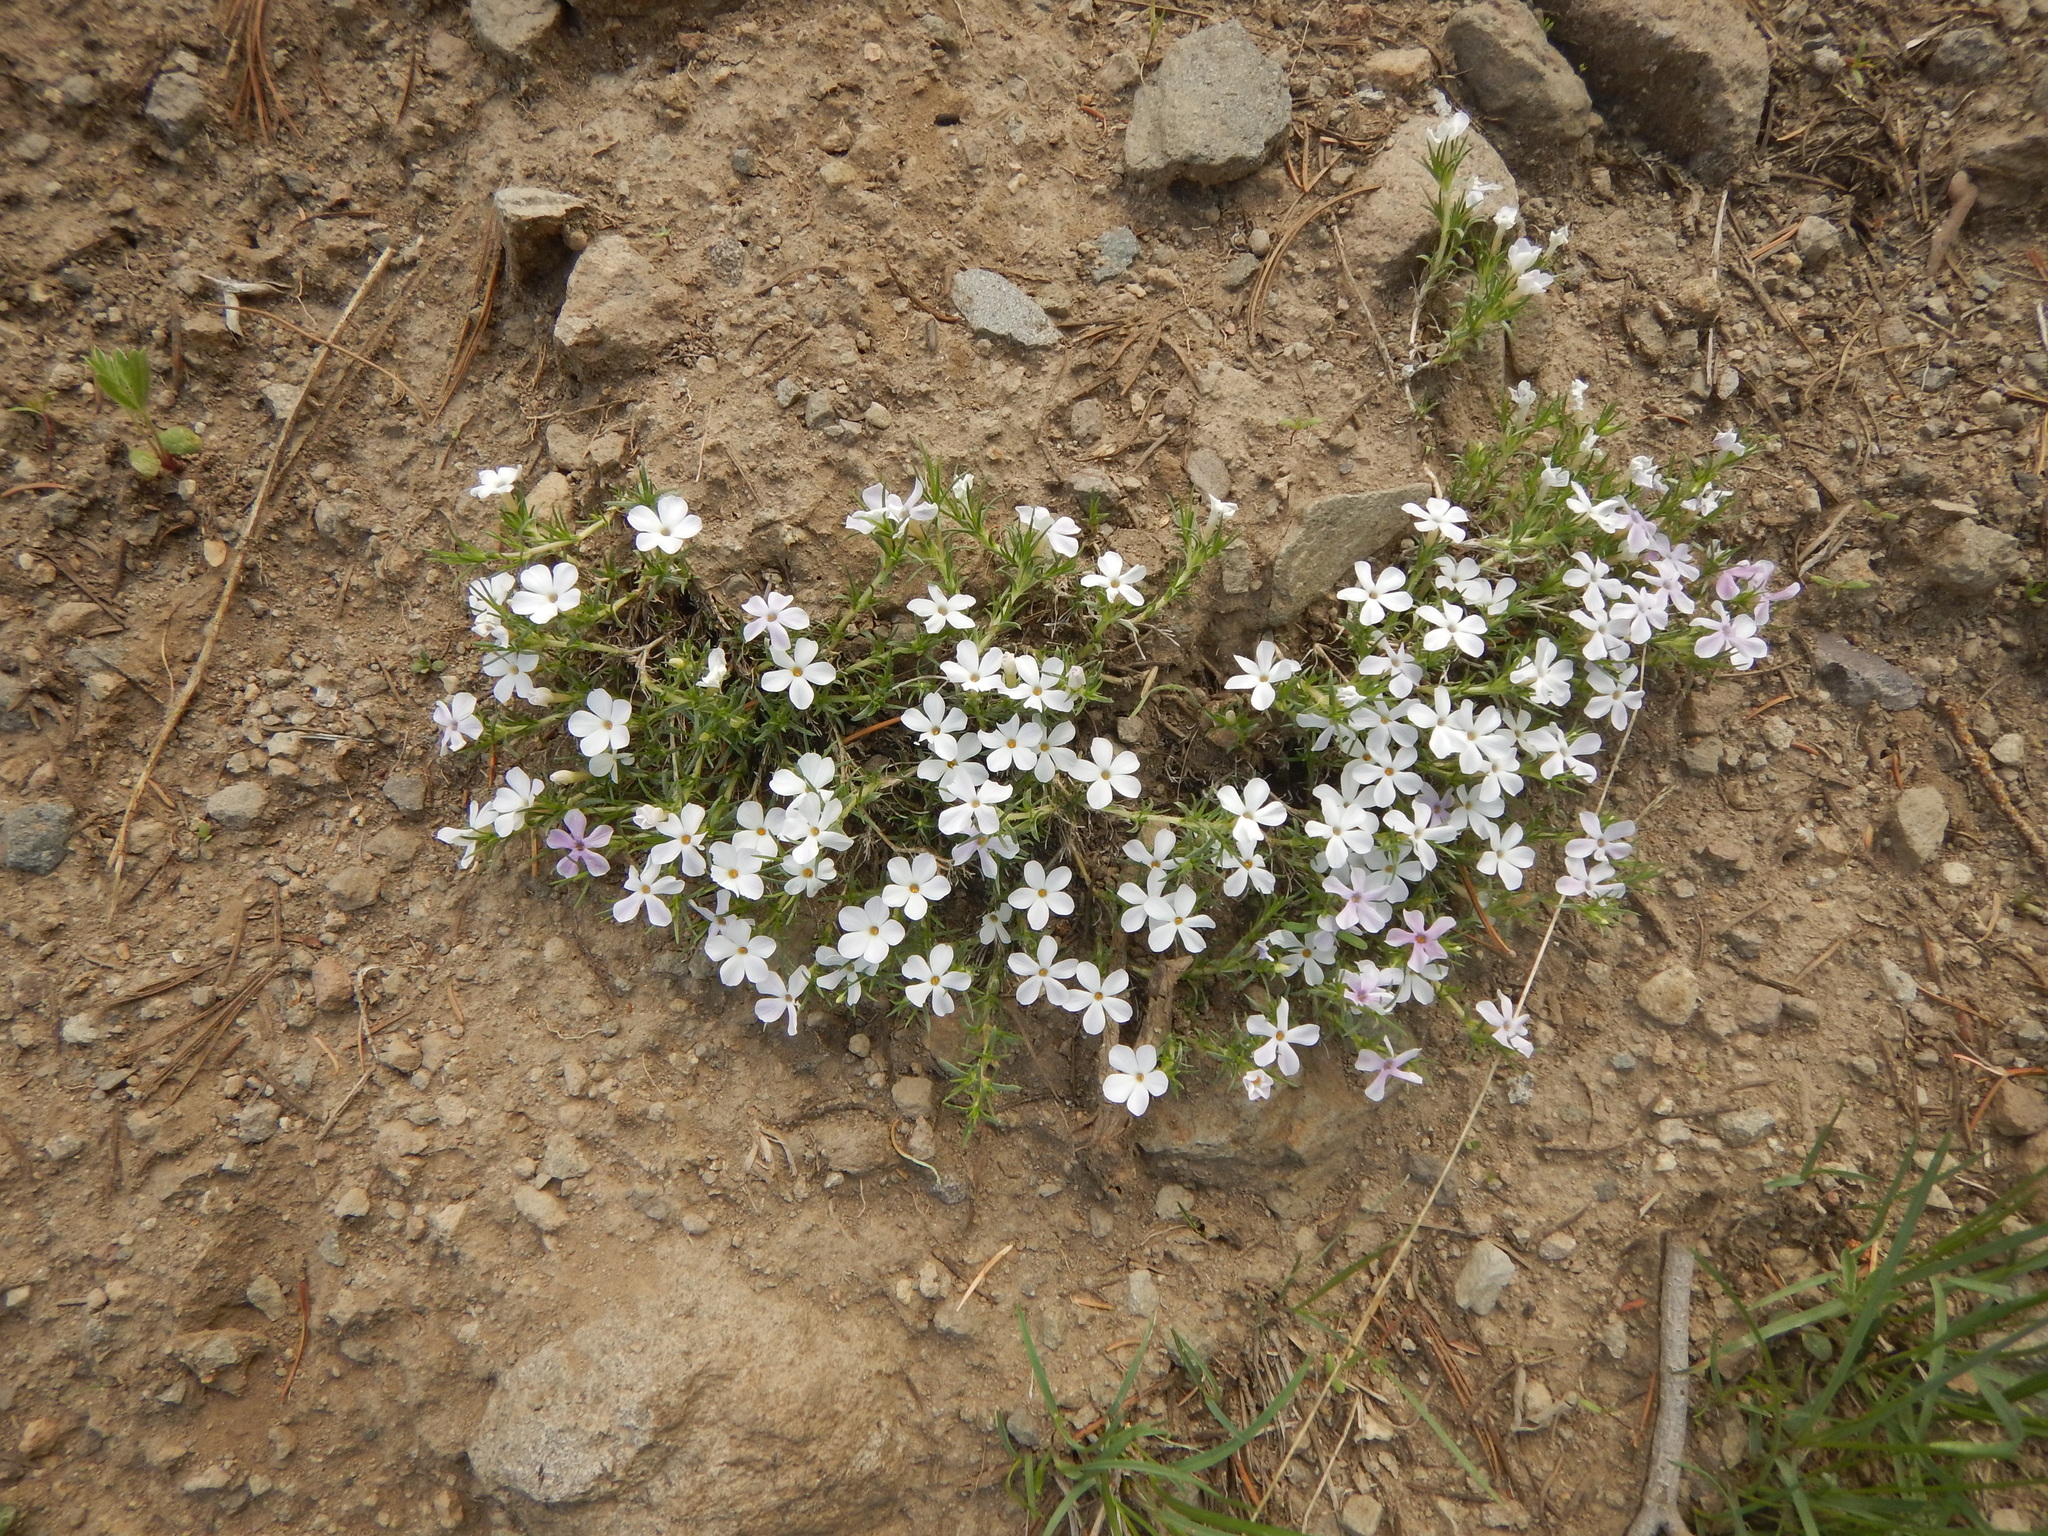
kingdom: Plantae
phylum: Tracheophyta
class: Magnoliopsida
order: Ericales
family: Polemoniaceae
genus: Phlox
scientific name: Phlox diffusa
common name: Mat phlox
